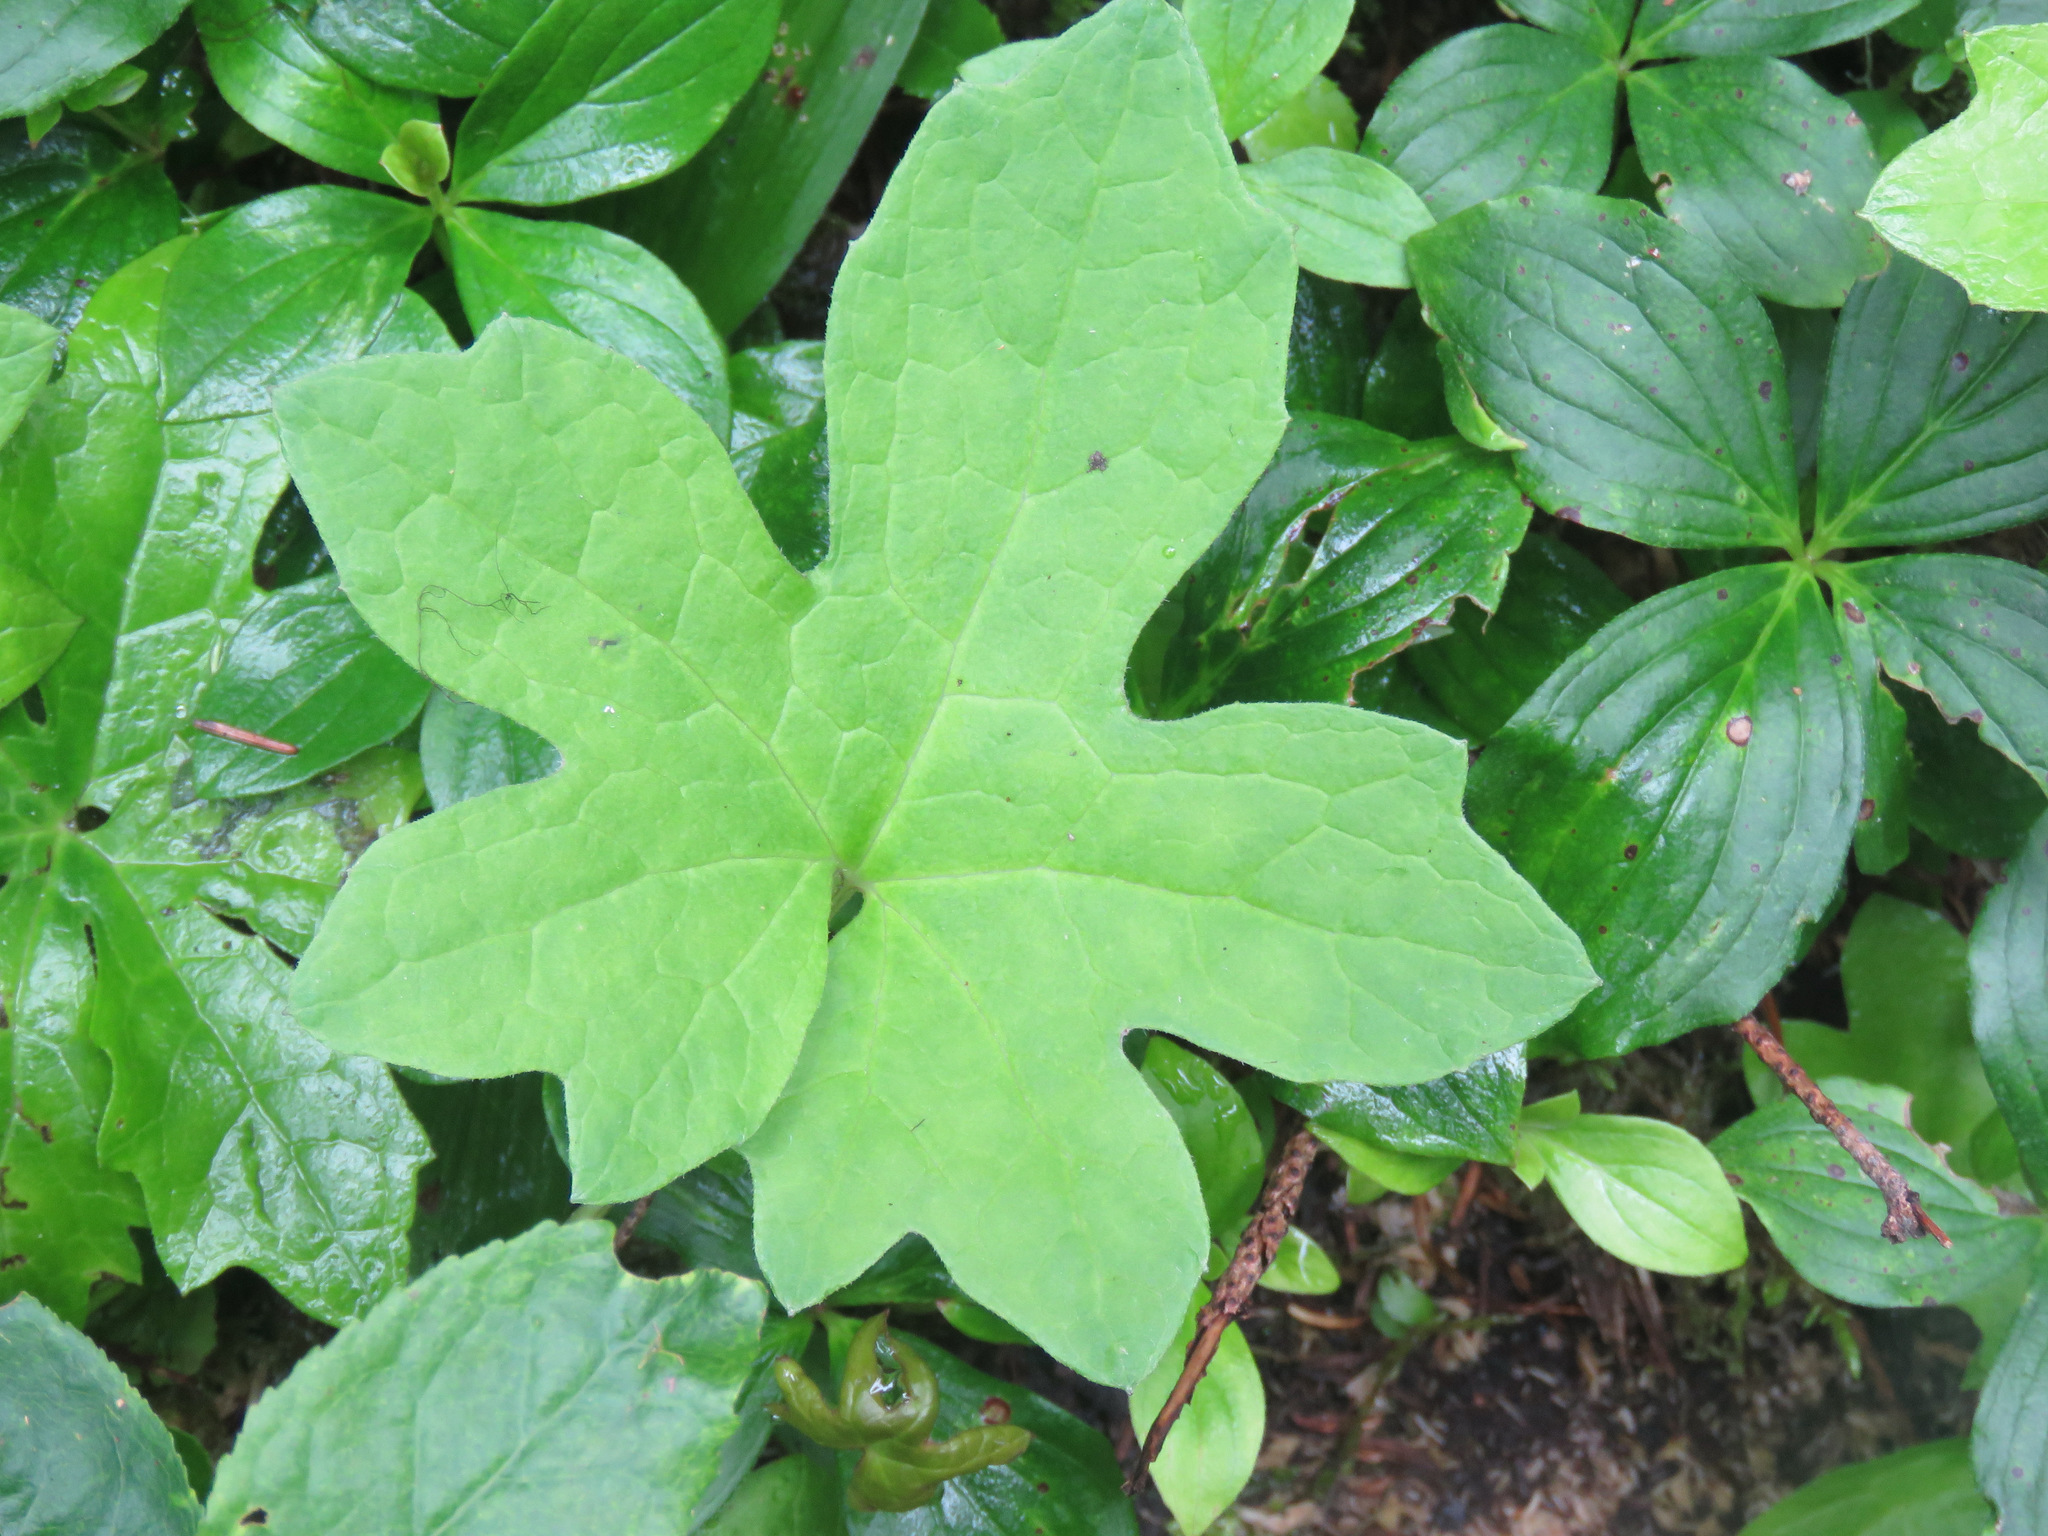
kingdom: Plantae
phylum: Tracheophyta
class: Magnoliopsida
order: Asterales
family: Asteraceae
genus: Petasites
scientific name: Petasites frigidus
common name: Arctic butterbur
